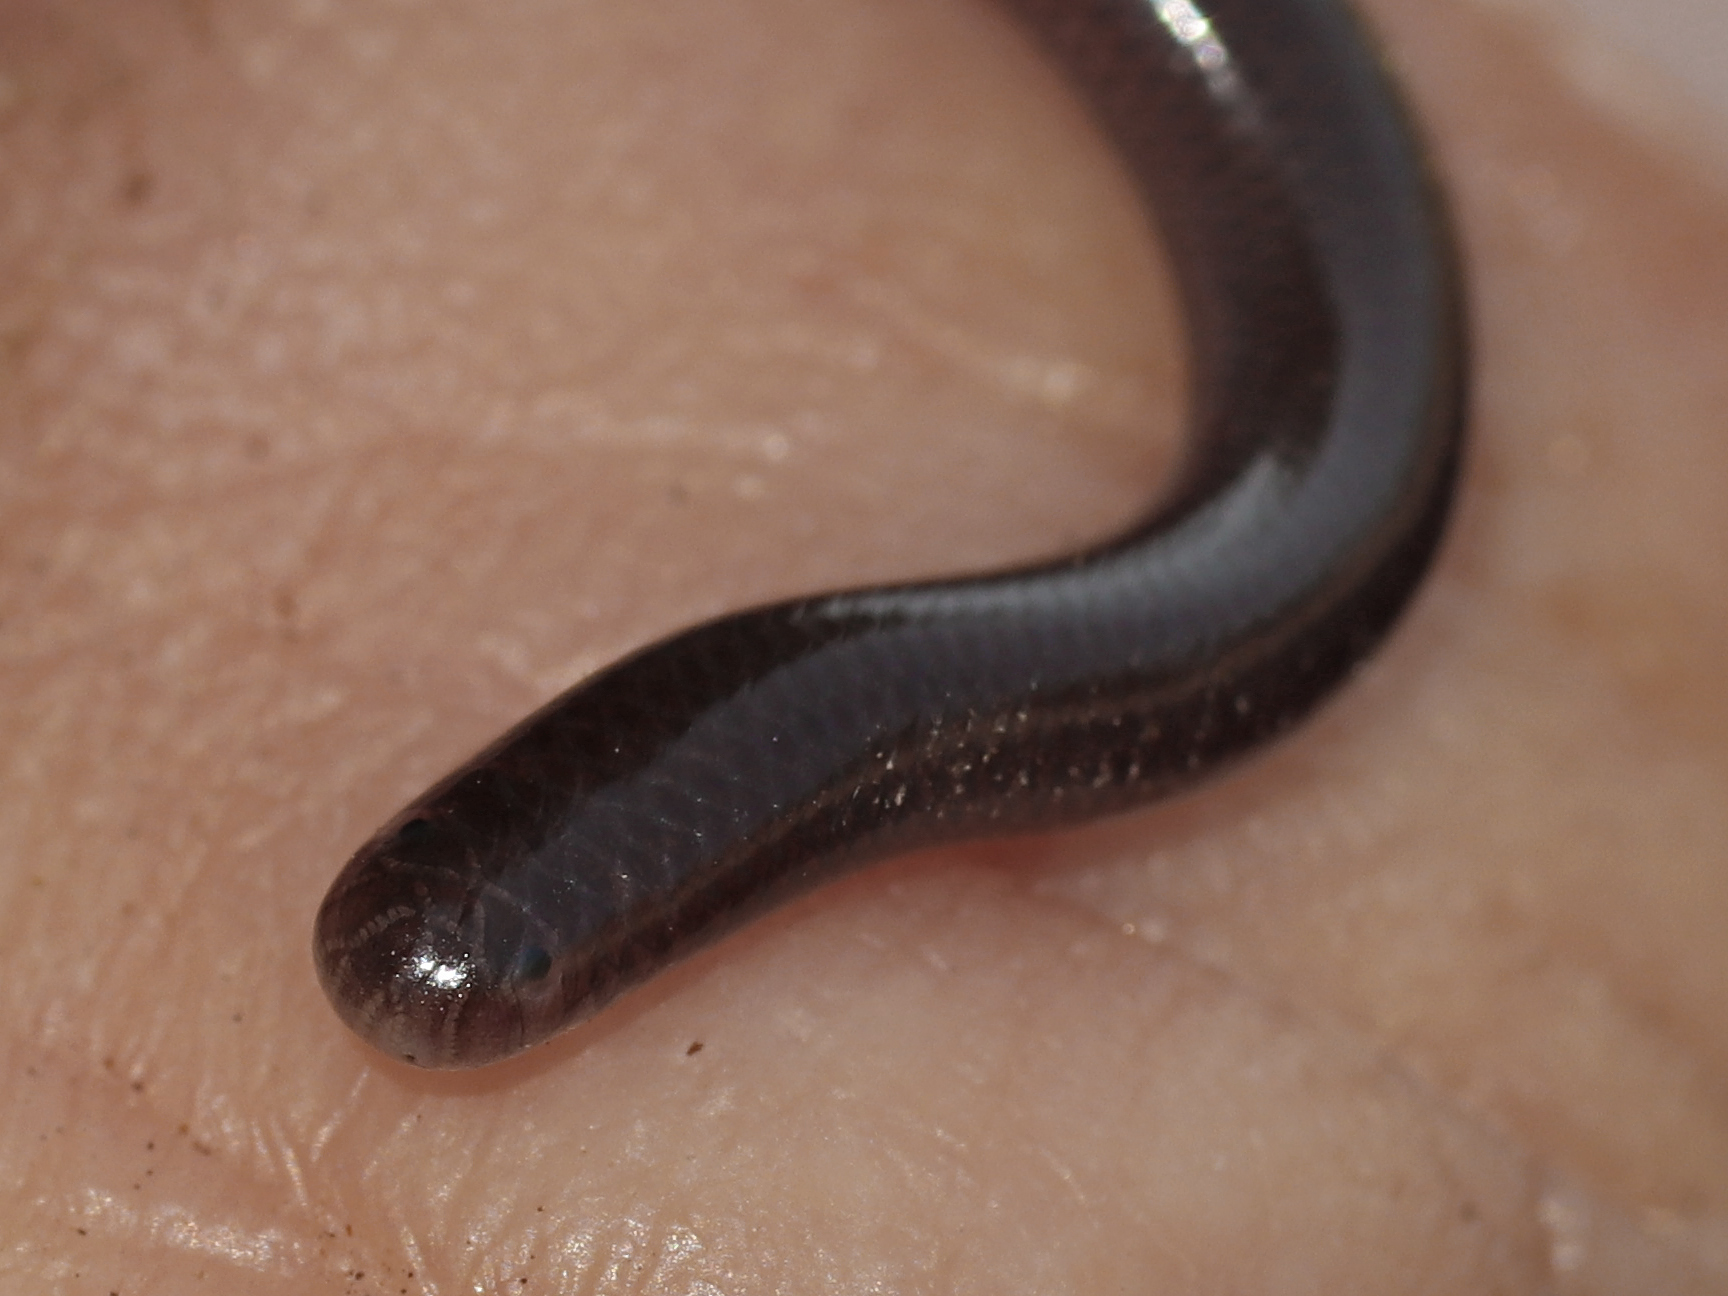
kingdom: Animalia
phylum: Chordata
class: Squamata
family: Typhlopidae
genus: Indotyphlops
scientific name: Indotyphlops braminus
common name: Brahminy blindsnake
